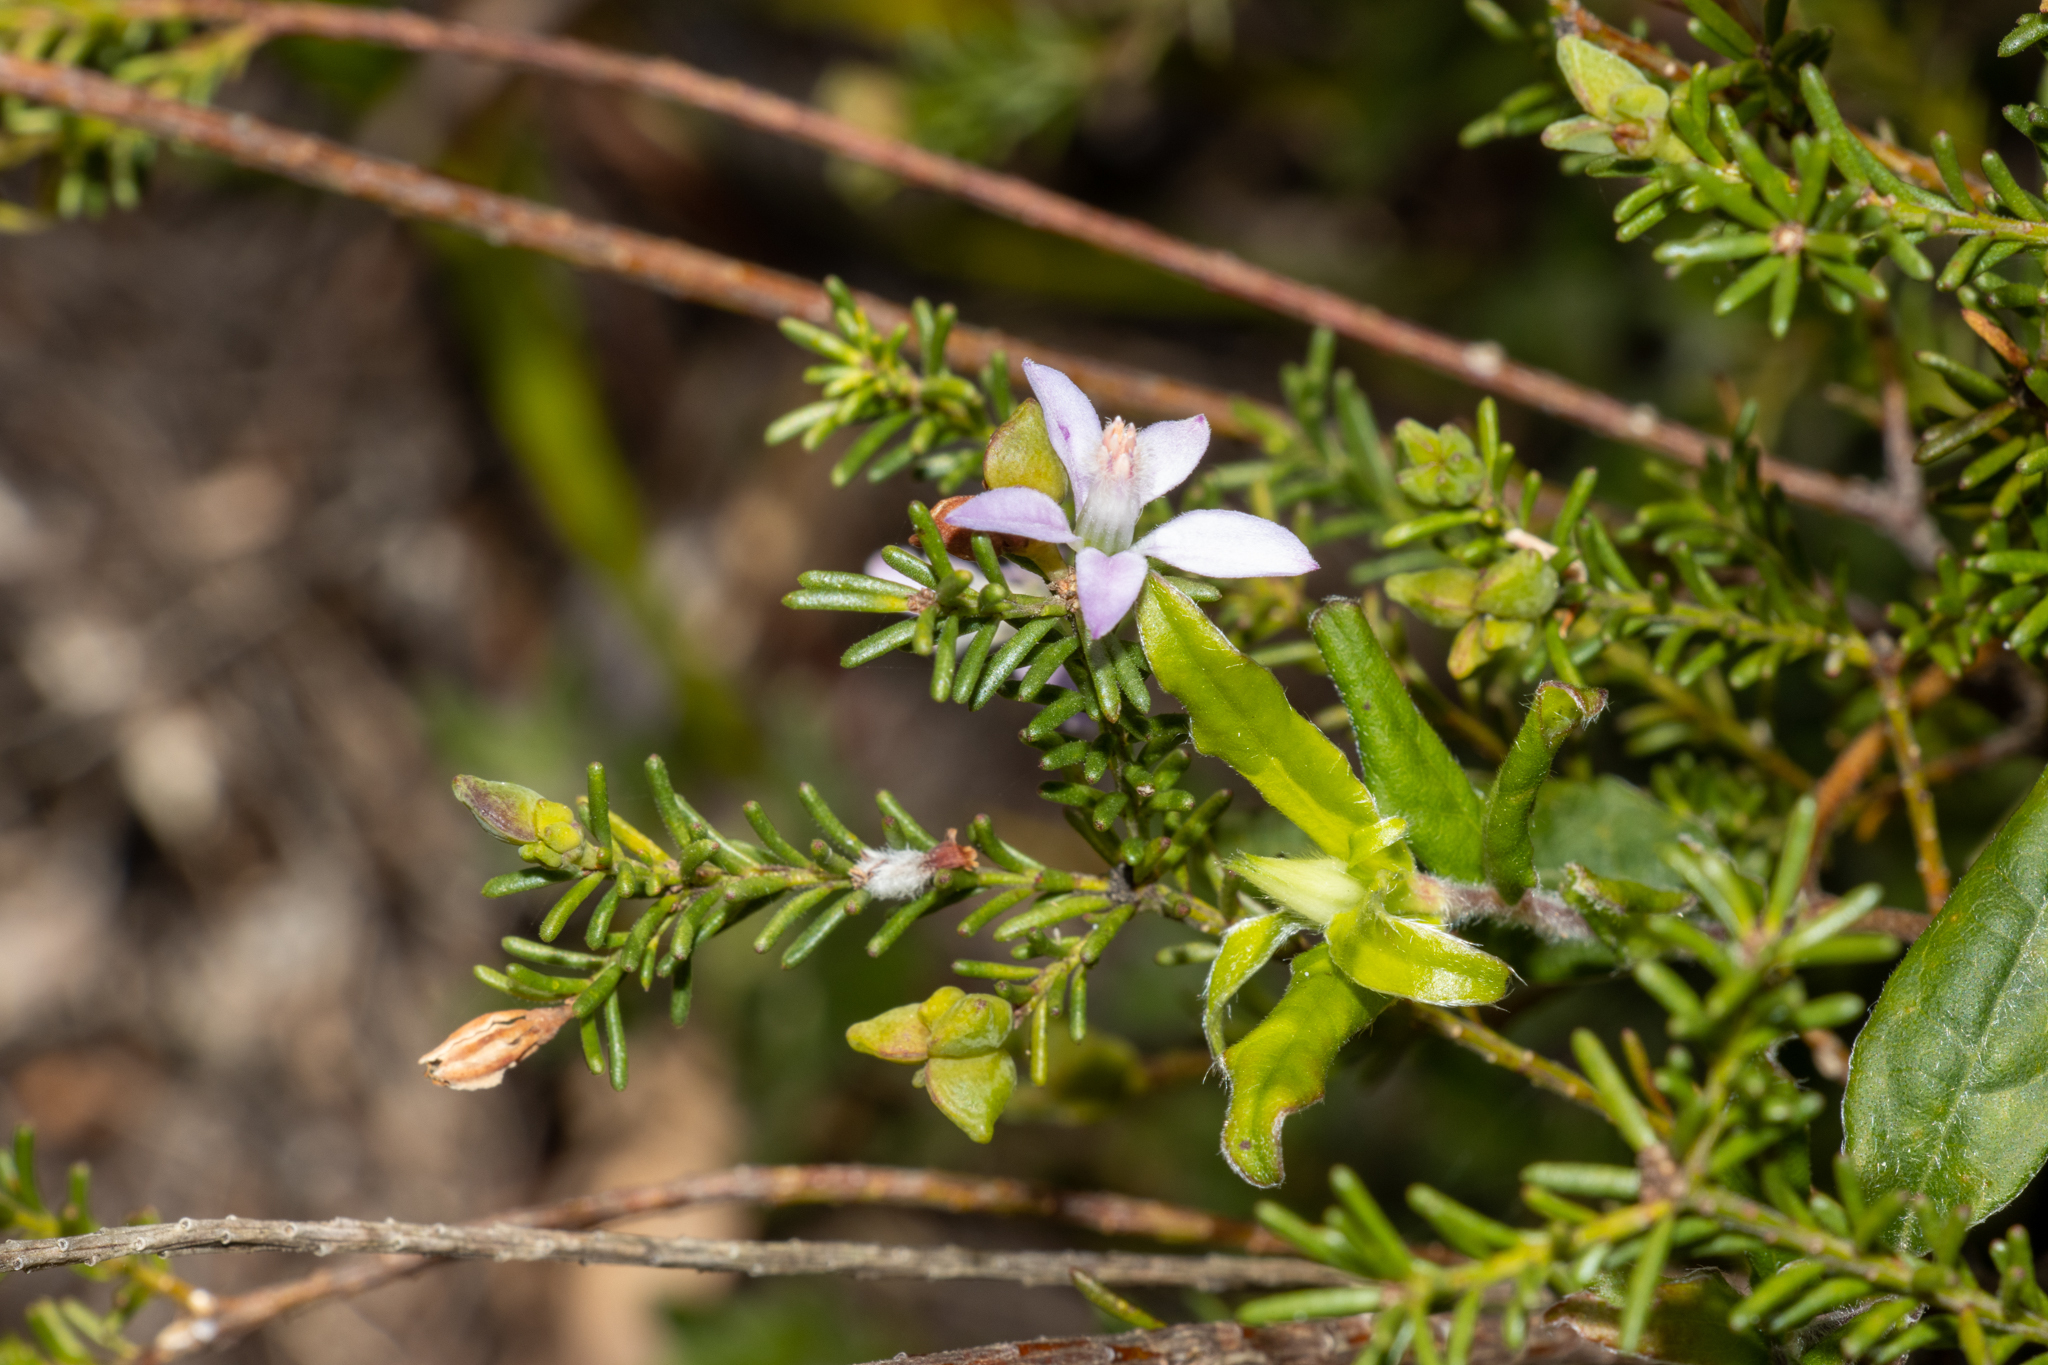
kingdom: Plantae
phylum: Tracheophyta
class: Magnoliopsida
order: Sapindales
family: Rutaceae
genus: Philotheca
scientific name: Philotheca salsolifolia
